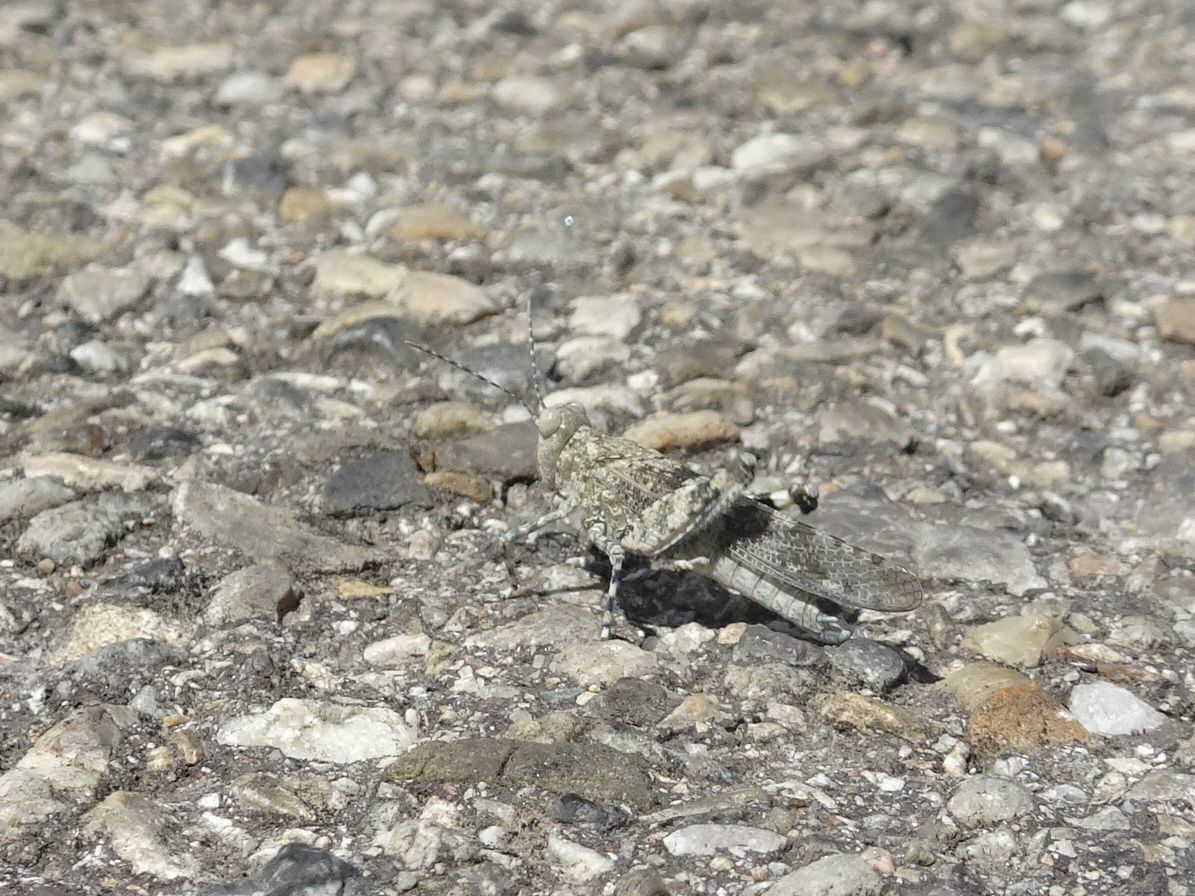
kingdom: Animalia
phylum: Arthropoda
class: Insecta
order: Orthoptera
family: Acrididae
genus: Sphingonotus
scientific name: Sphingonotus caerulans
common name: Blue-winged locust
